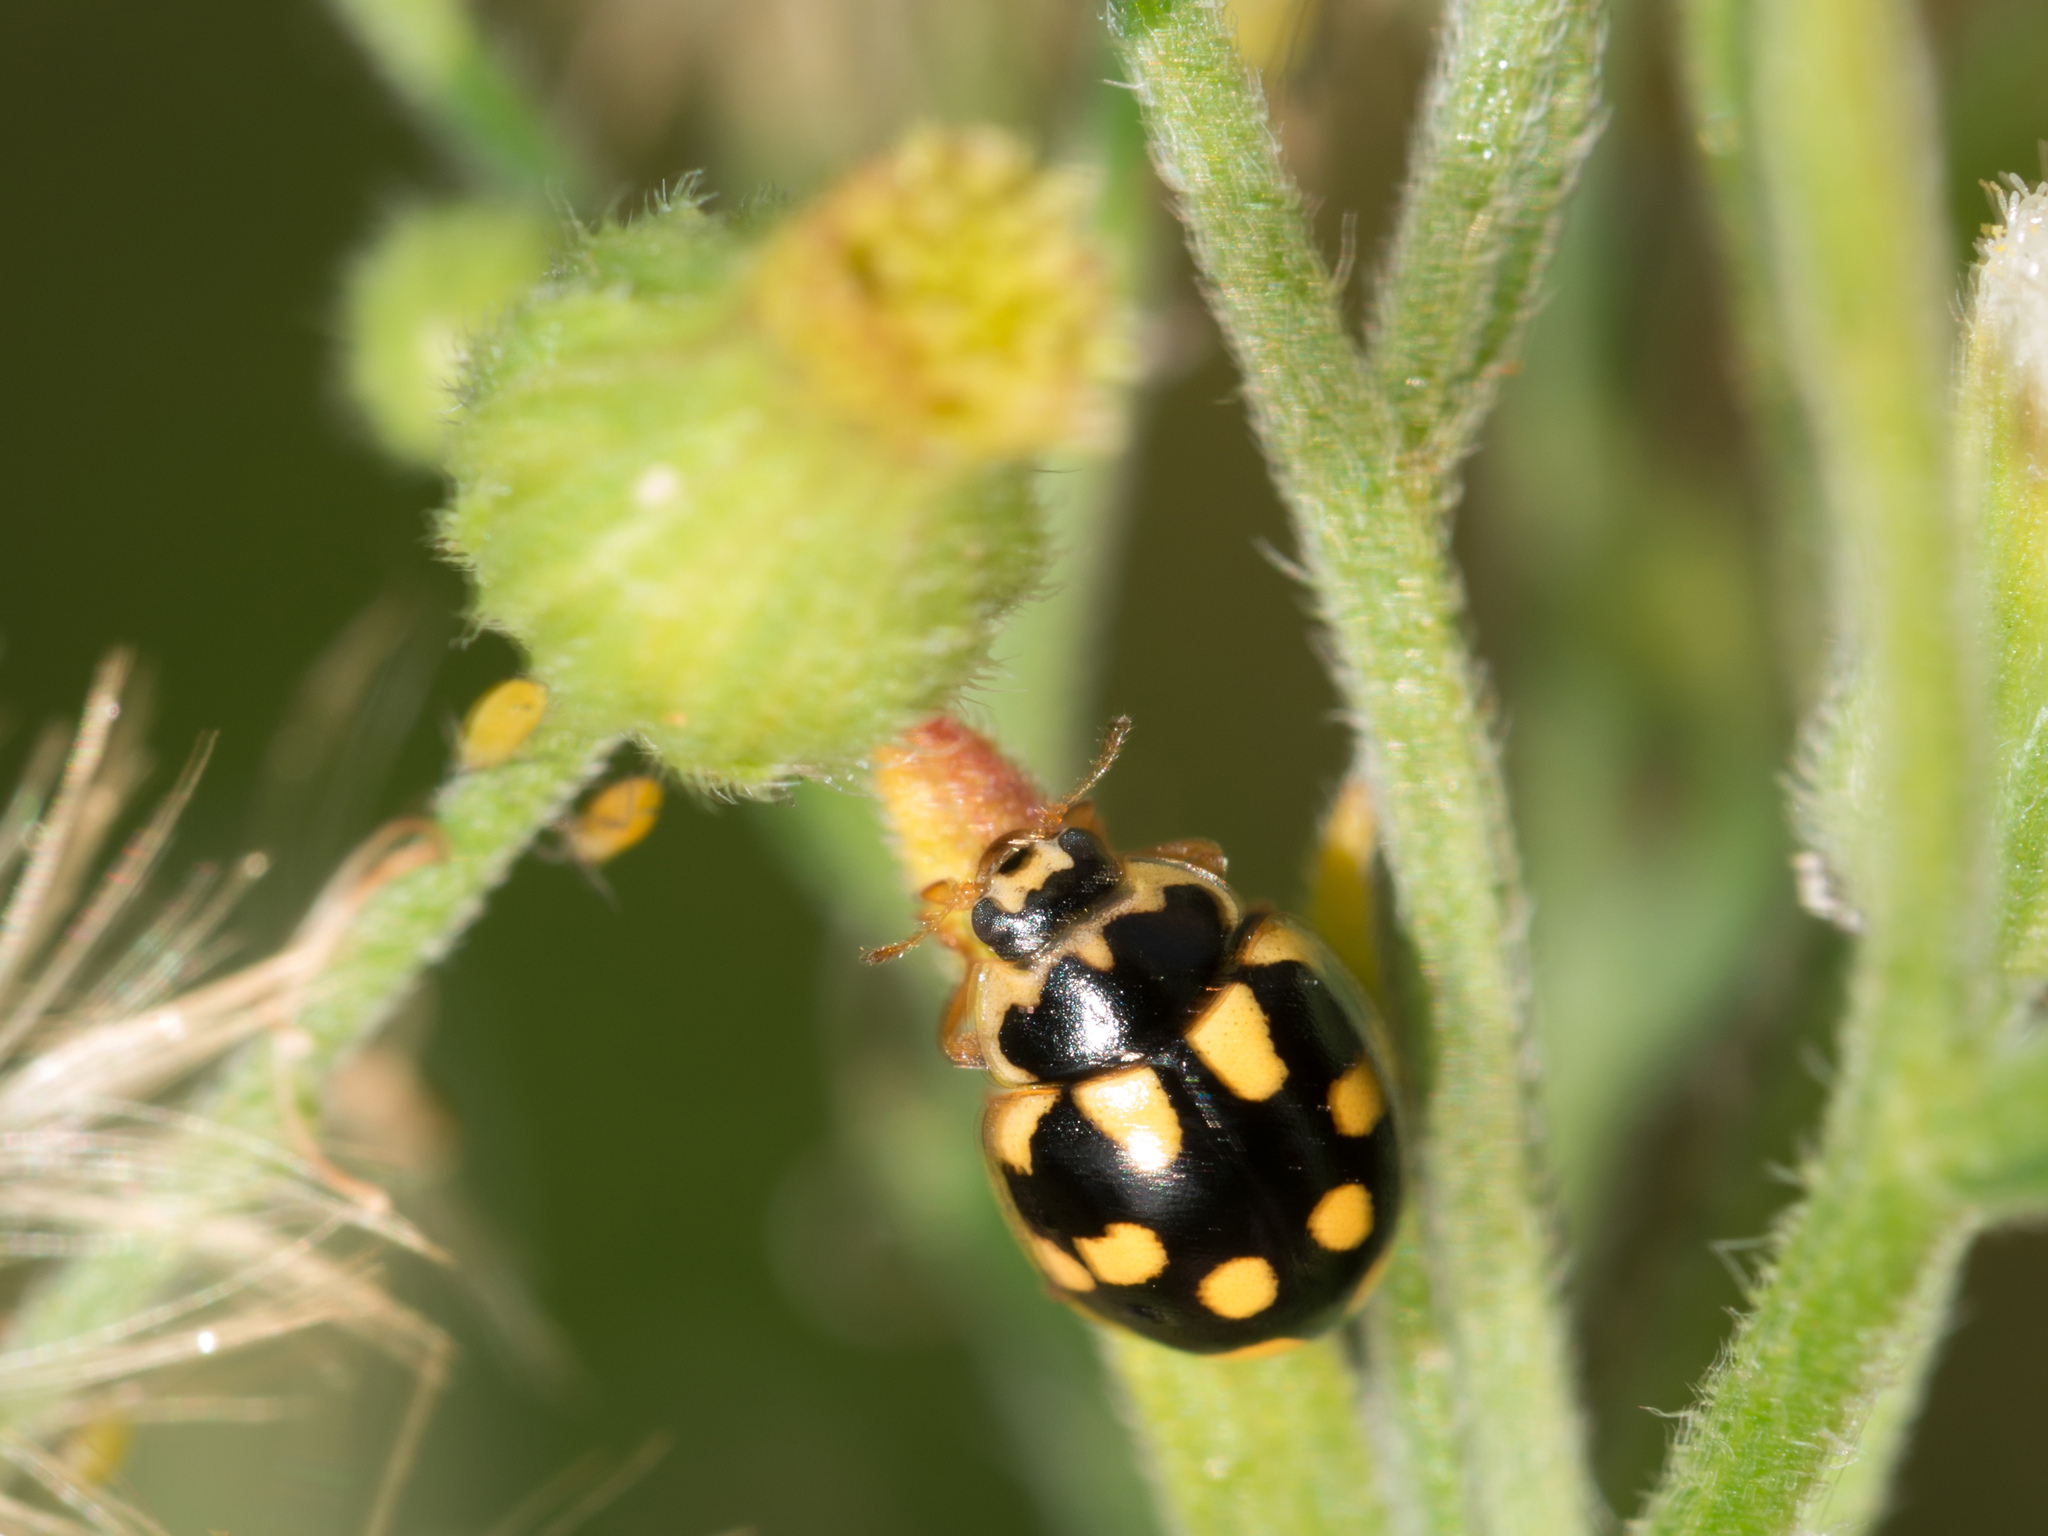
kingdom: Animalia
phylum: Arthropoda
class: Insecta
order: Coleoptera
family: Coccinellidae
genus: Propylaea
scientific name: Propylaea quatuordecimpunctata
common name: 14-spotted ladybird beetle
